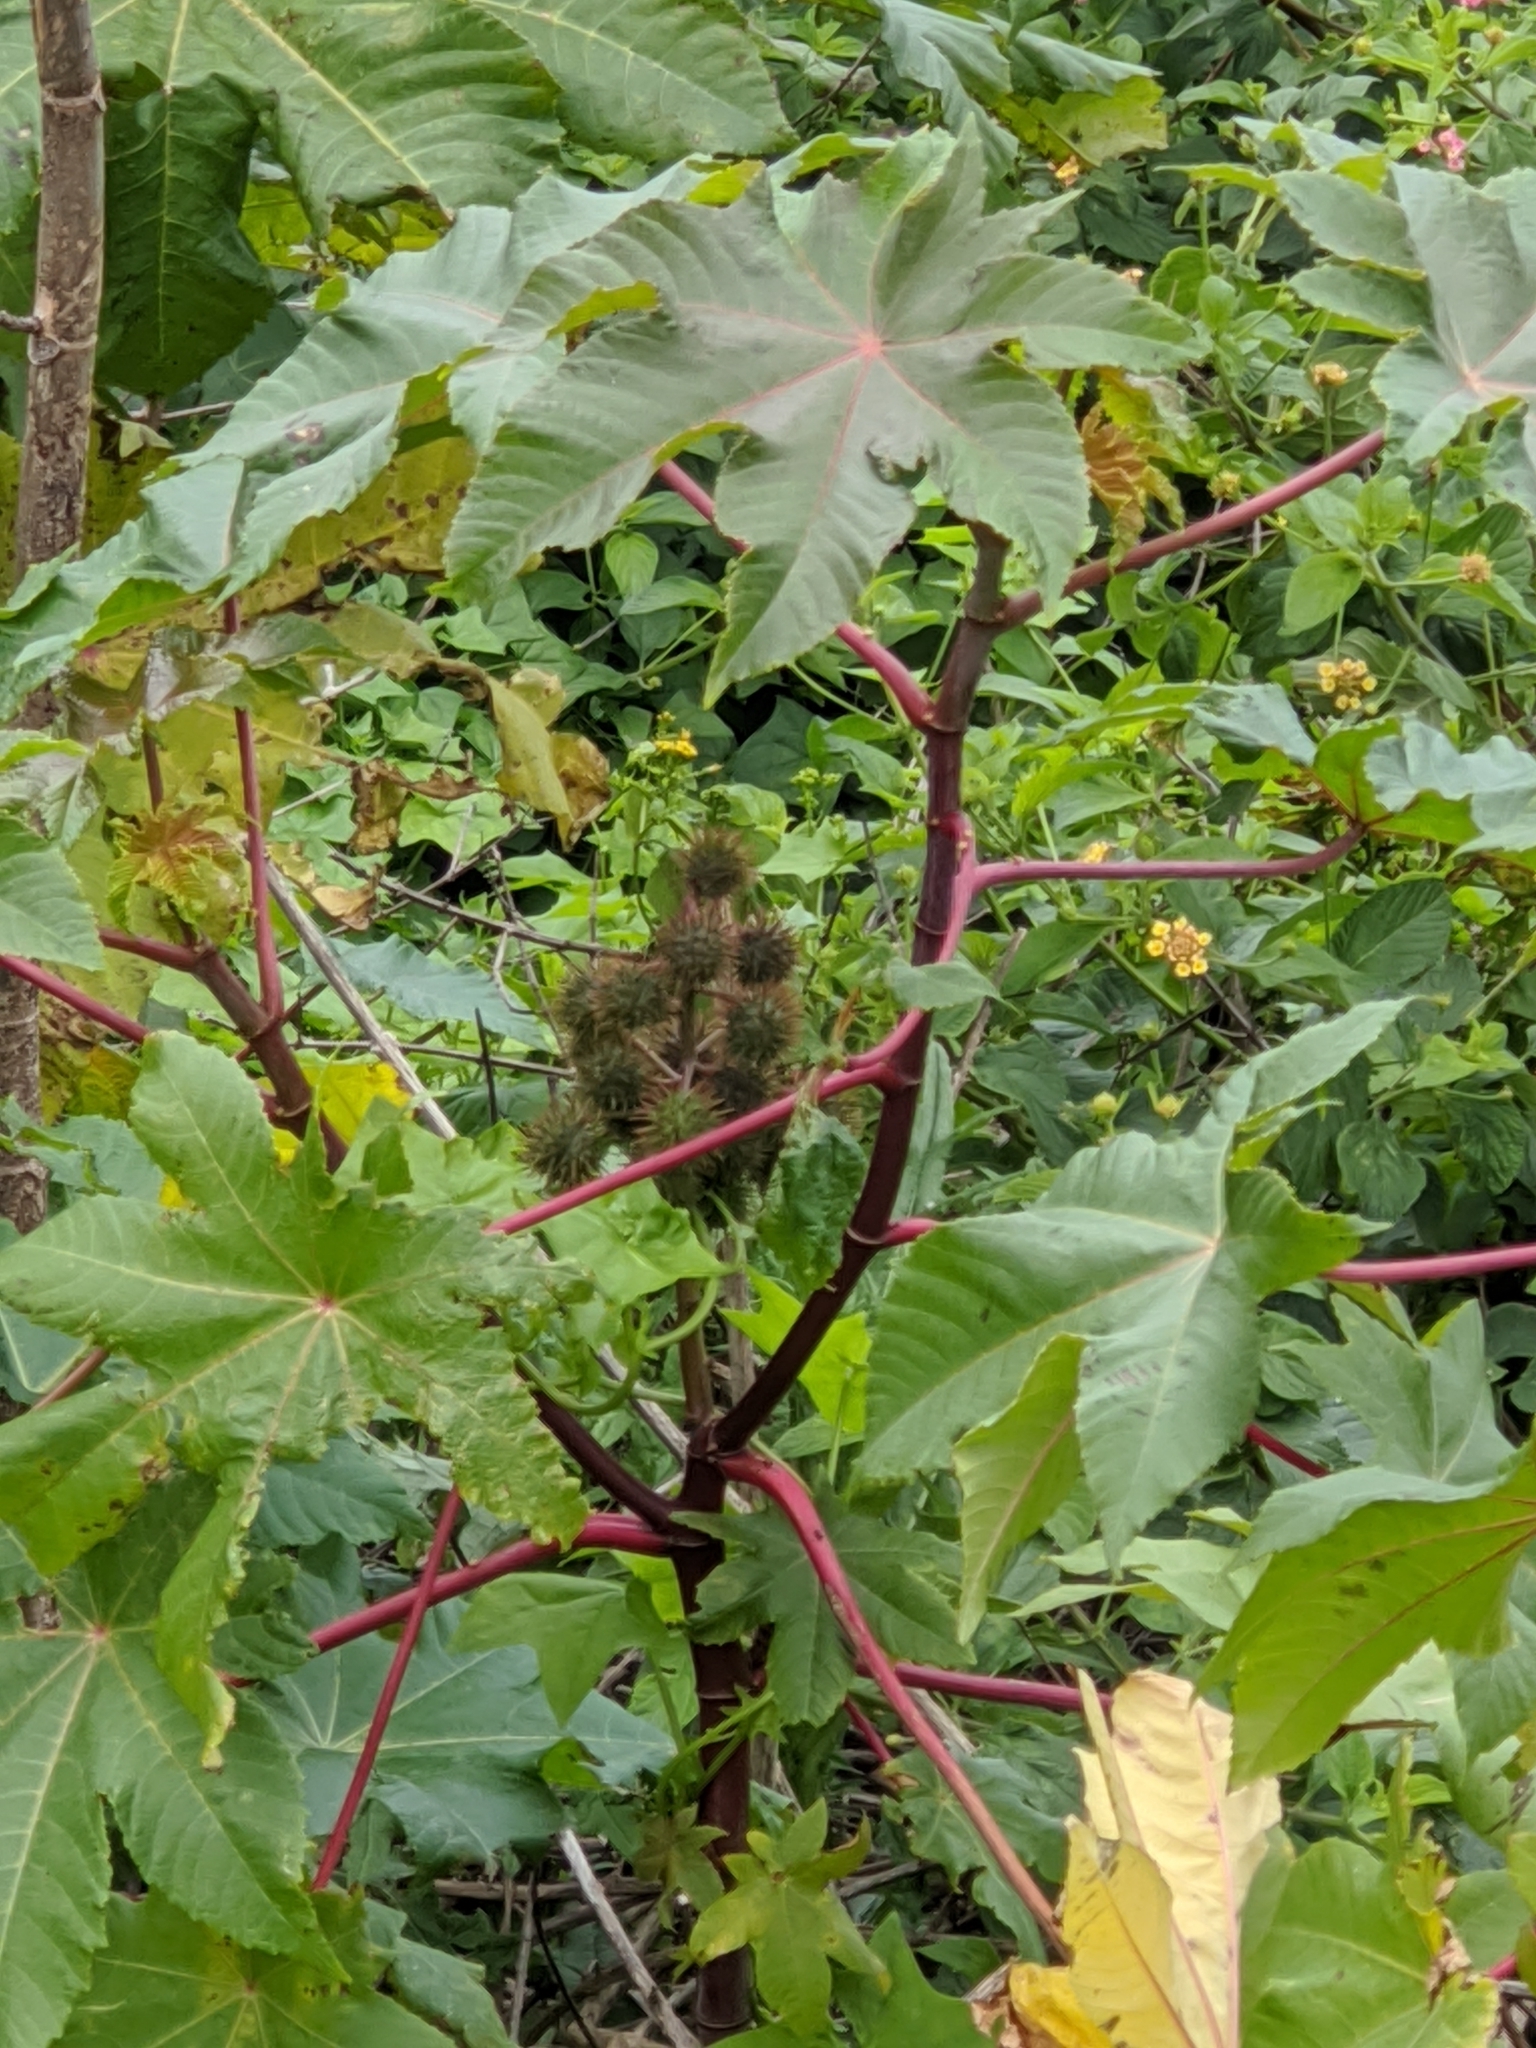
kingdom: Plantae
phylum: Tracheophyta
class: Magnoliopsida
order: Malpighiales
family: Euphorbiaceae
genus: Ricinus
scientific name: Ricinus communis
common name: Castor-oil-plant
